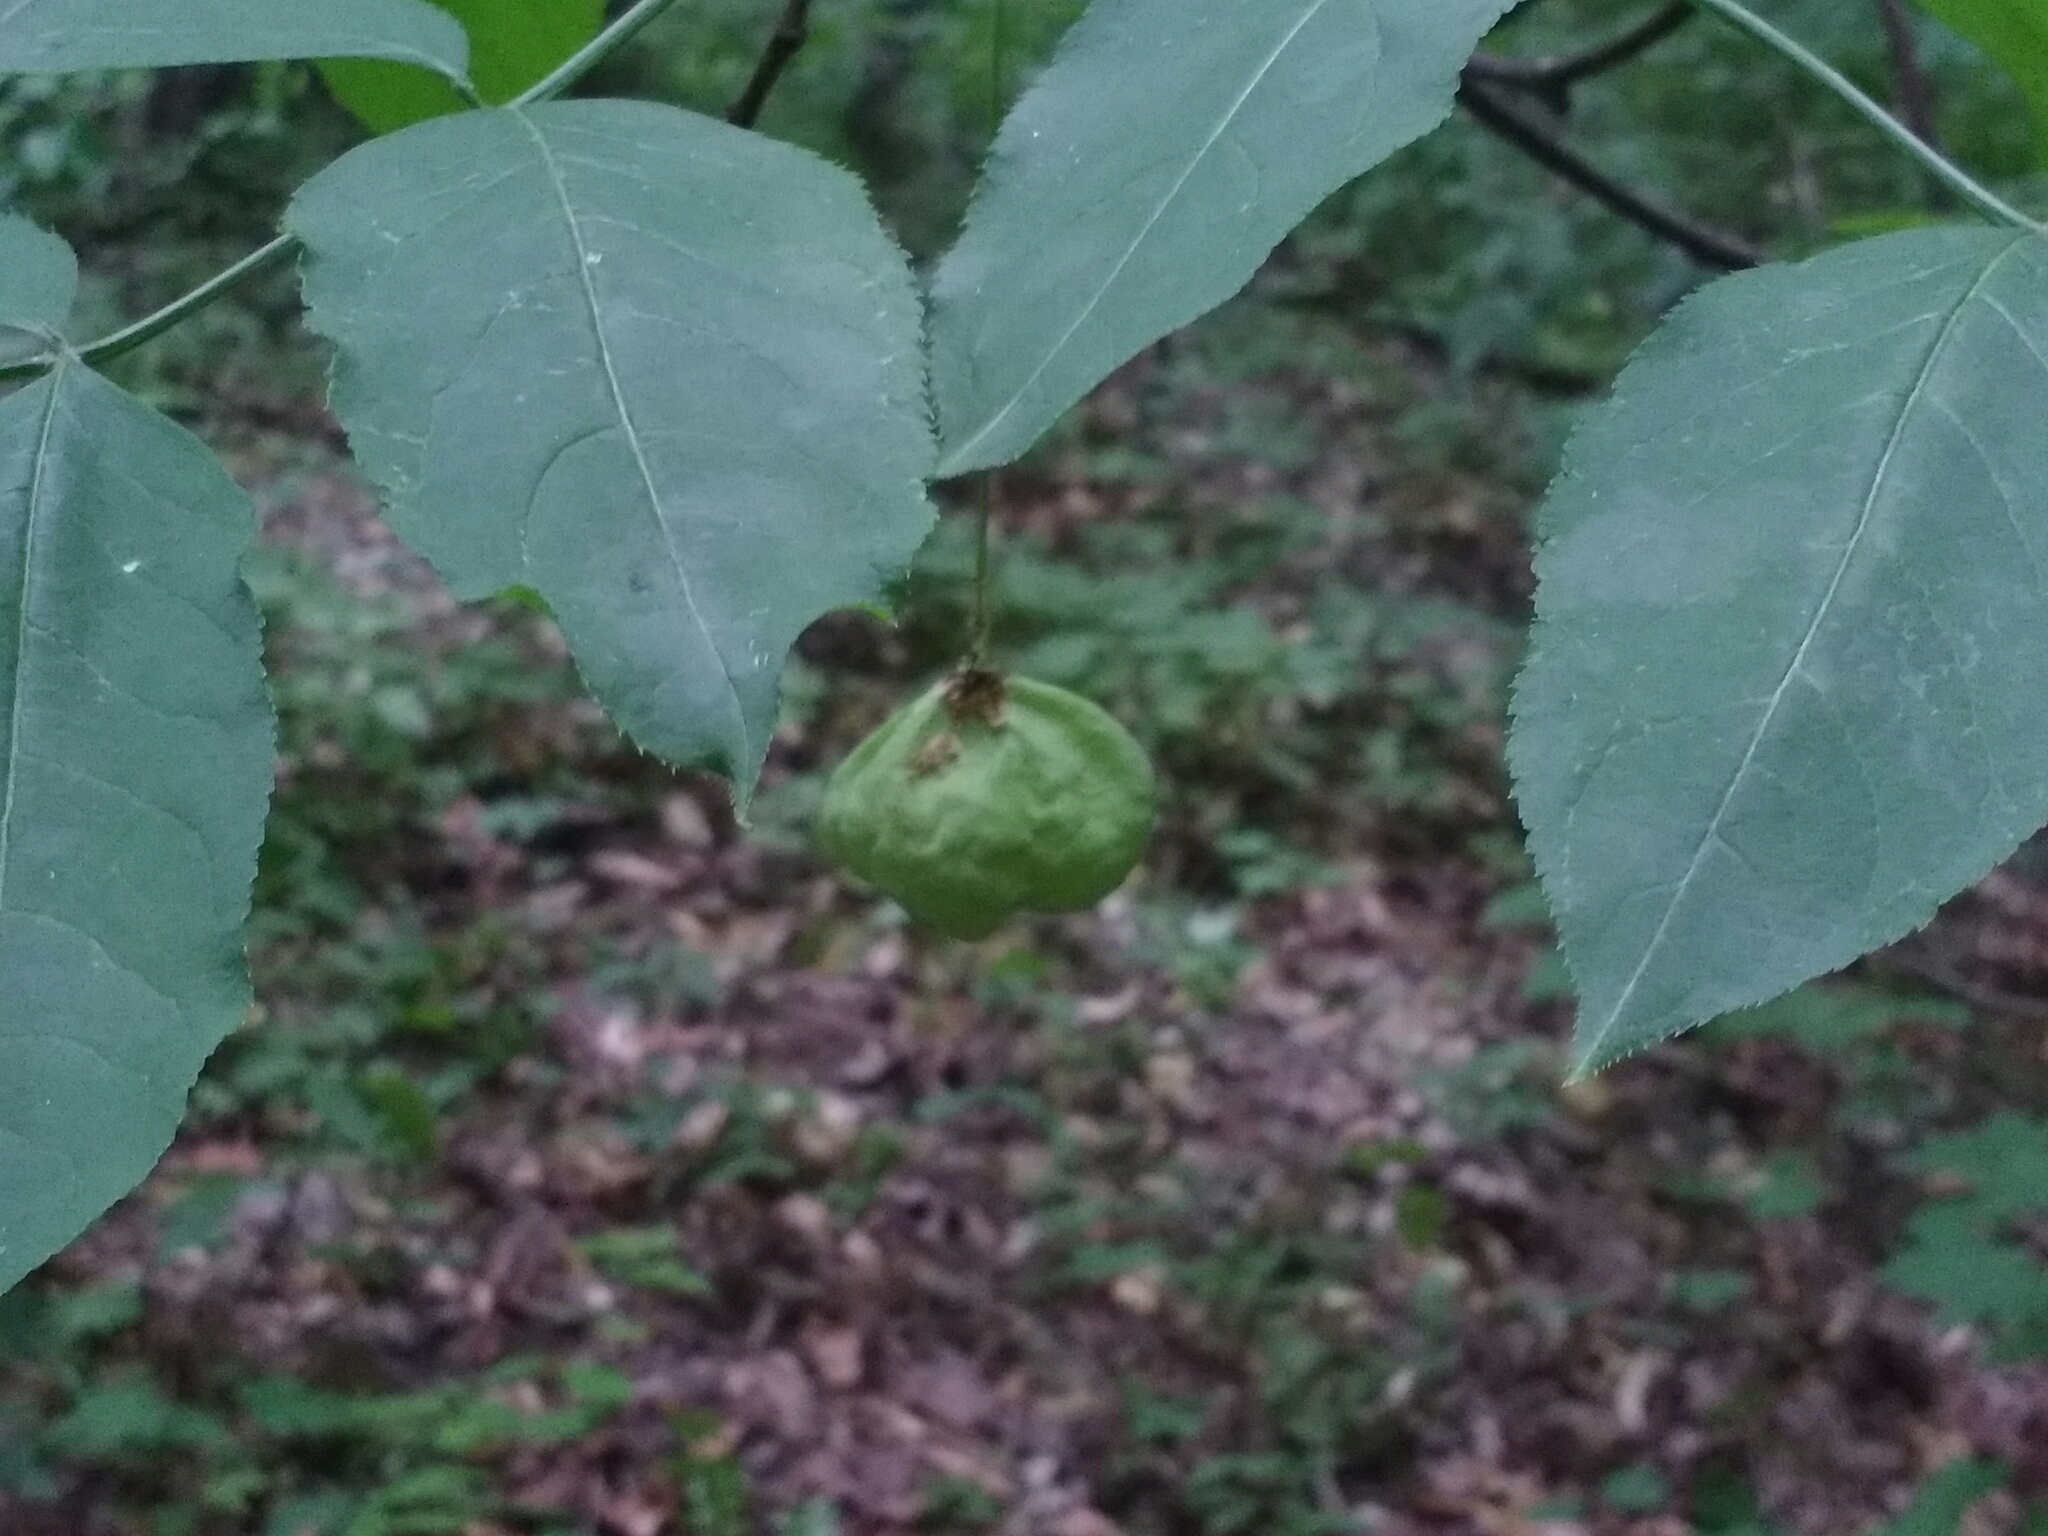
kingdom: Plantae
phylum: Tracheophyta
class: Magnoliopsida
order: Crossosomatales
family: Staphyleaceae
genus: Staphylea
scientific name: Staphylea pinnata
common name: Bladdernut
